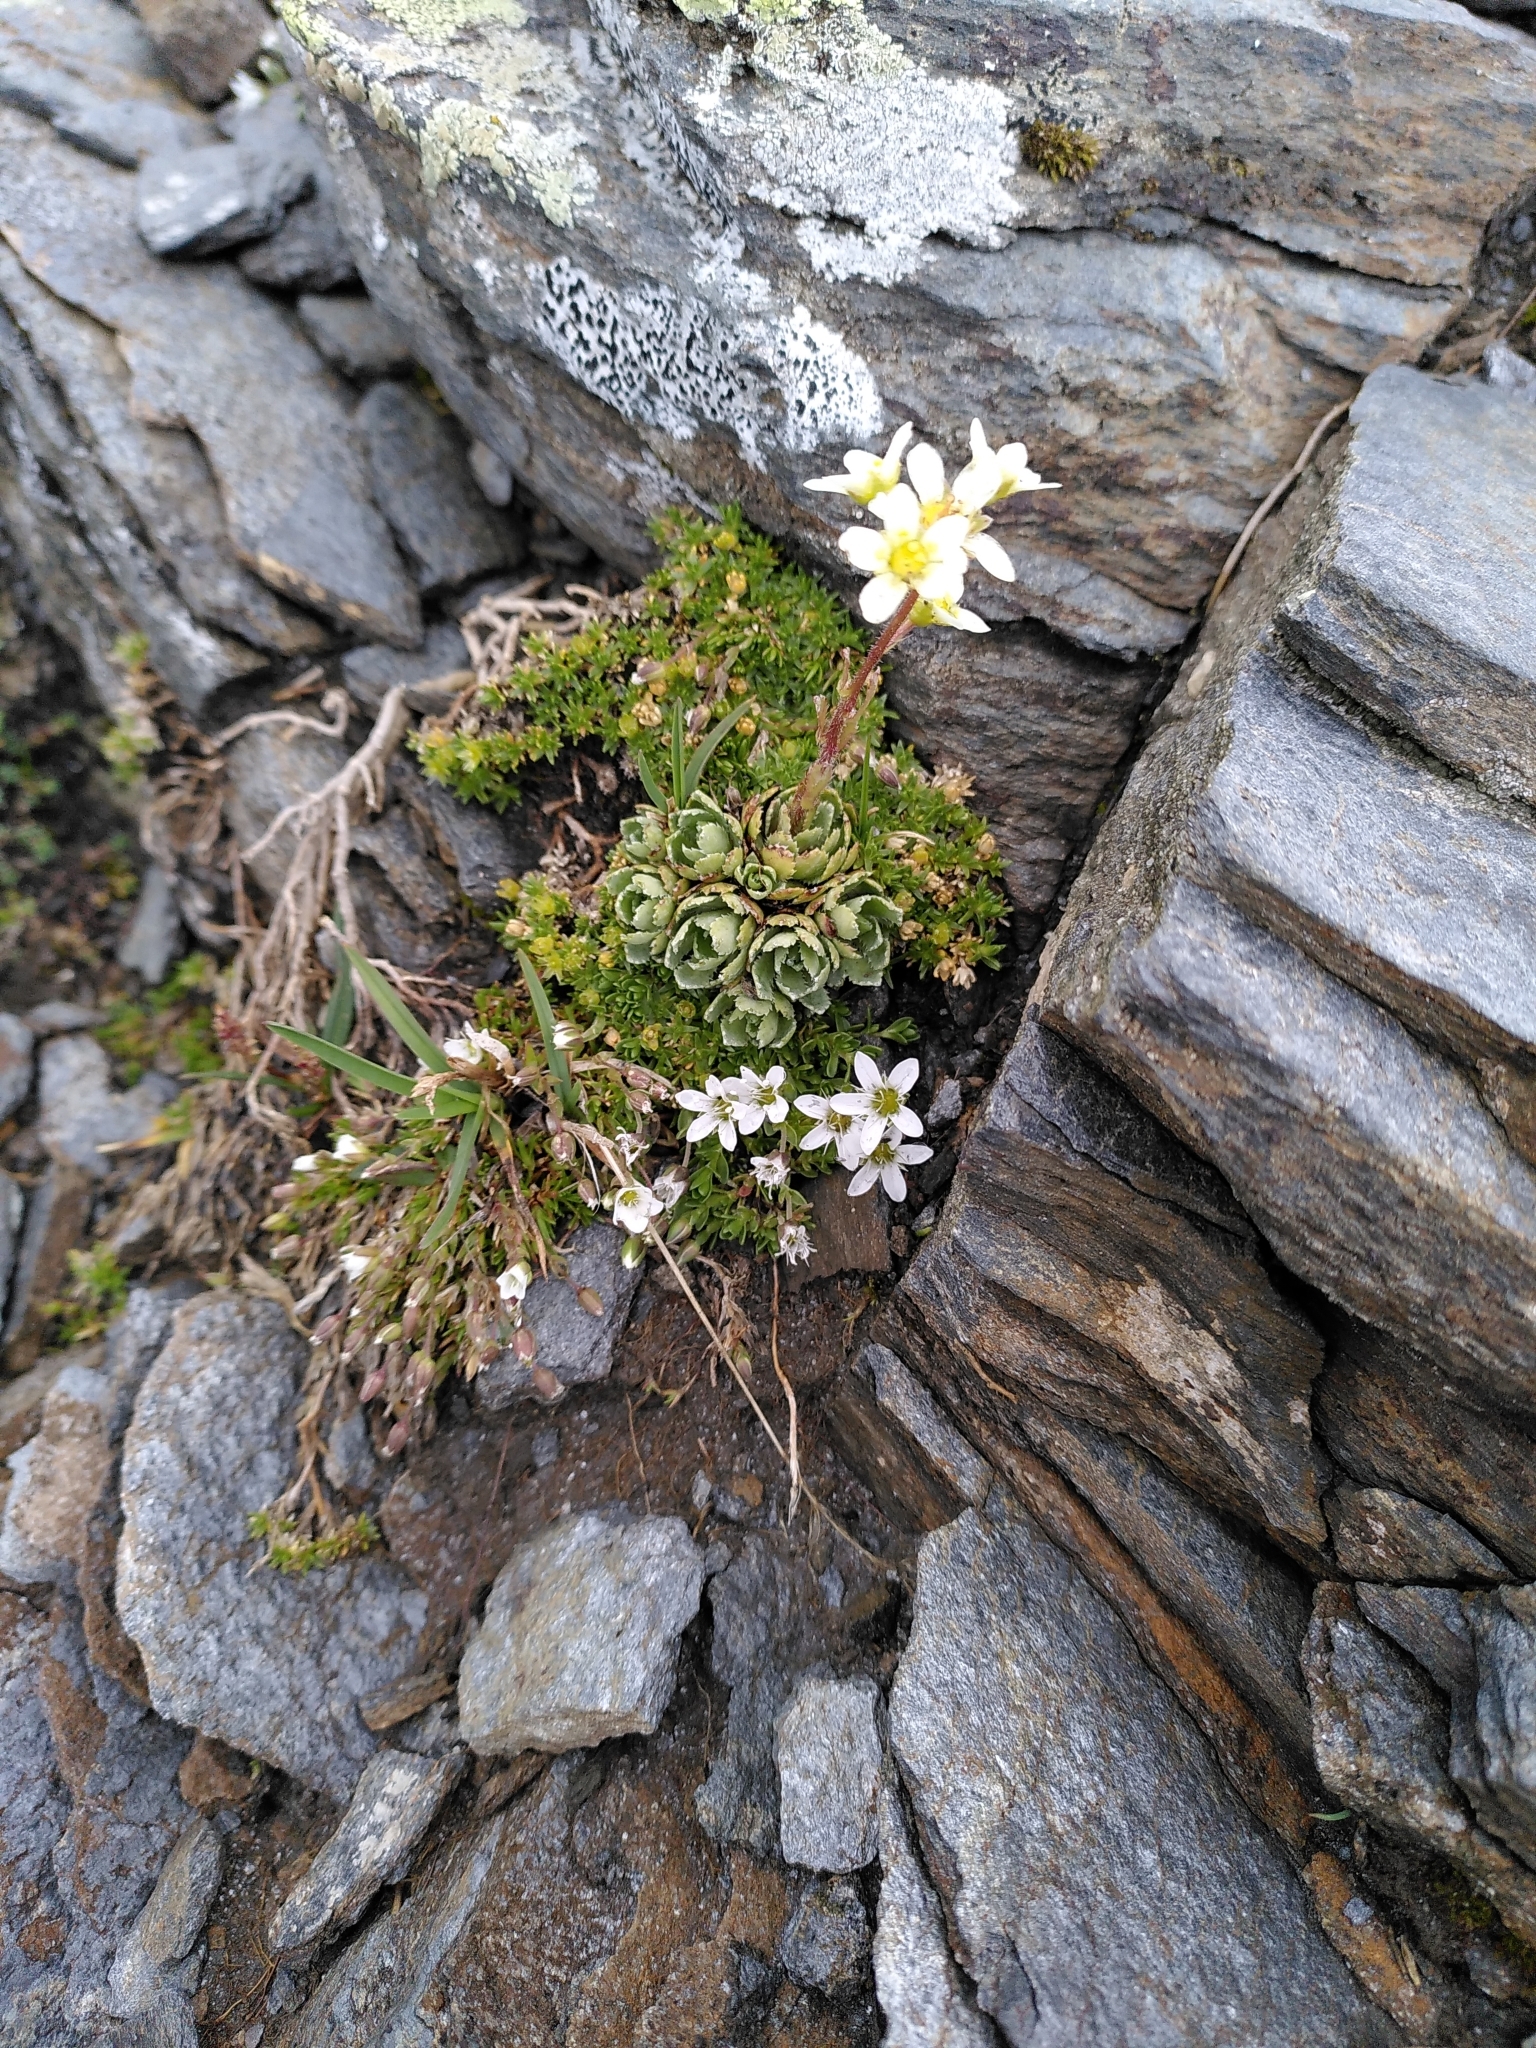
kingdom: Plantae
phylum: Tracheophyta
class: Magnoliopsida
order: Saxifragales
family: Saxifragaceae
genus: Saxifraga
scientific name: Saxifraga paniculata
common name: Livelong saxifrage
